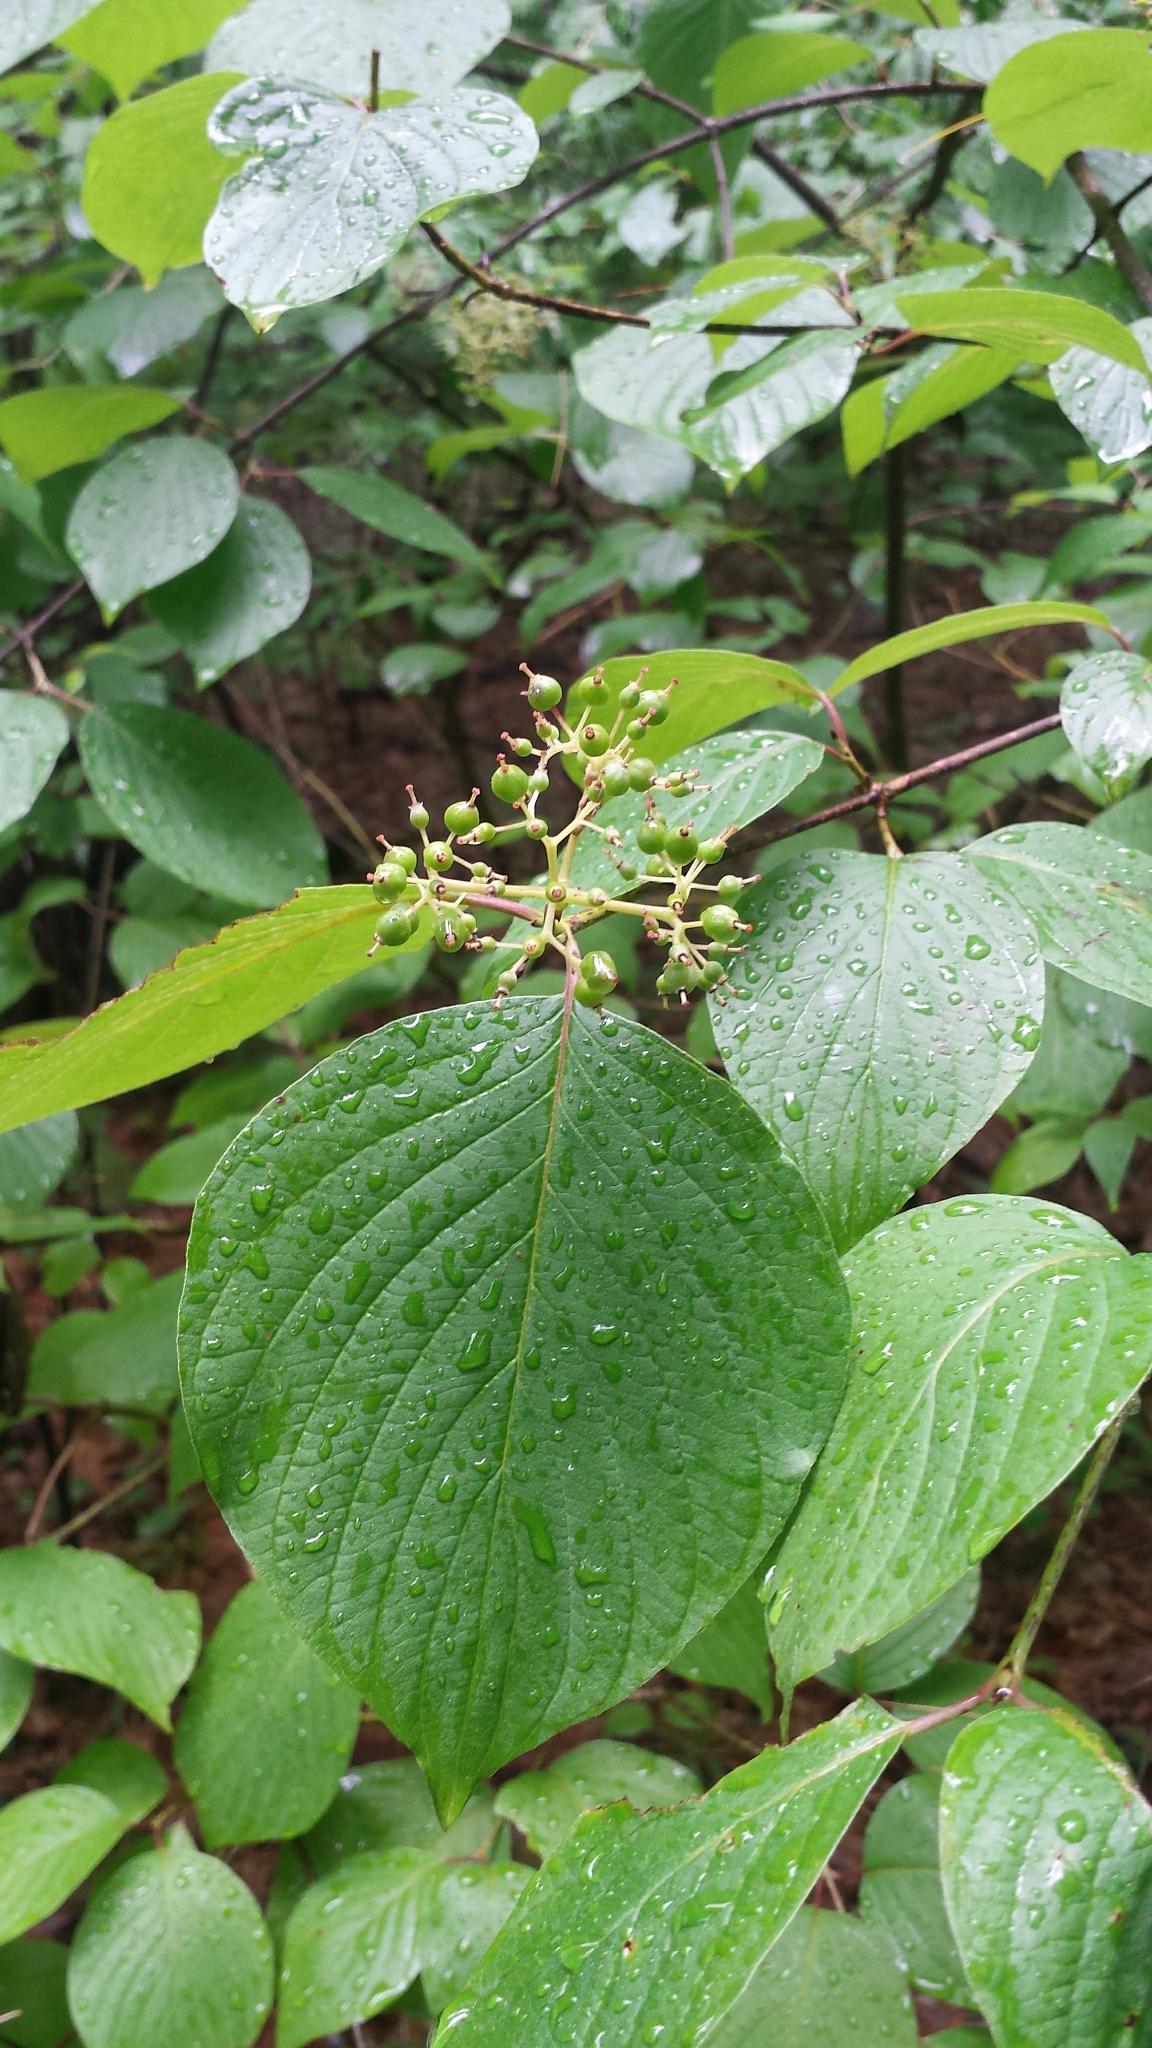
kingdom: Plantae
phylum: Tracheophyta
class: Magnoliopsida
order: Cornales
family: Cornaceae
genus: Cornus
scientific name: Cornus rugosa
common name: Round-leaf dogwood
